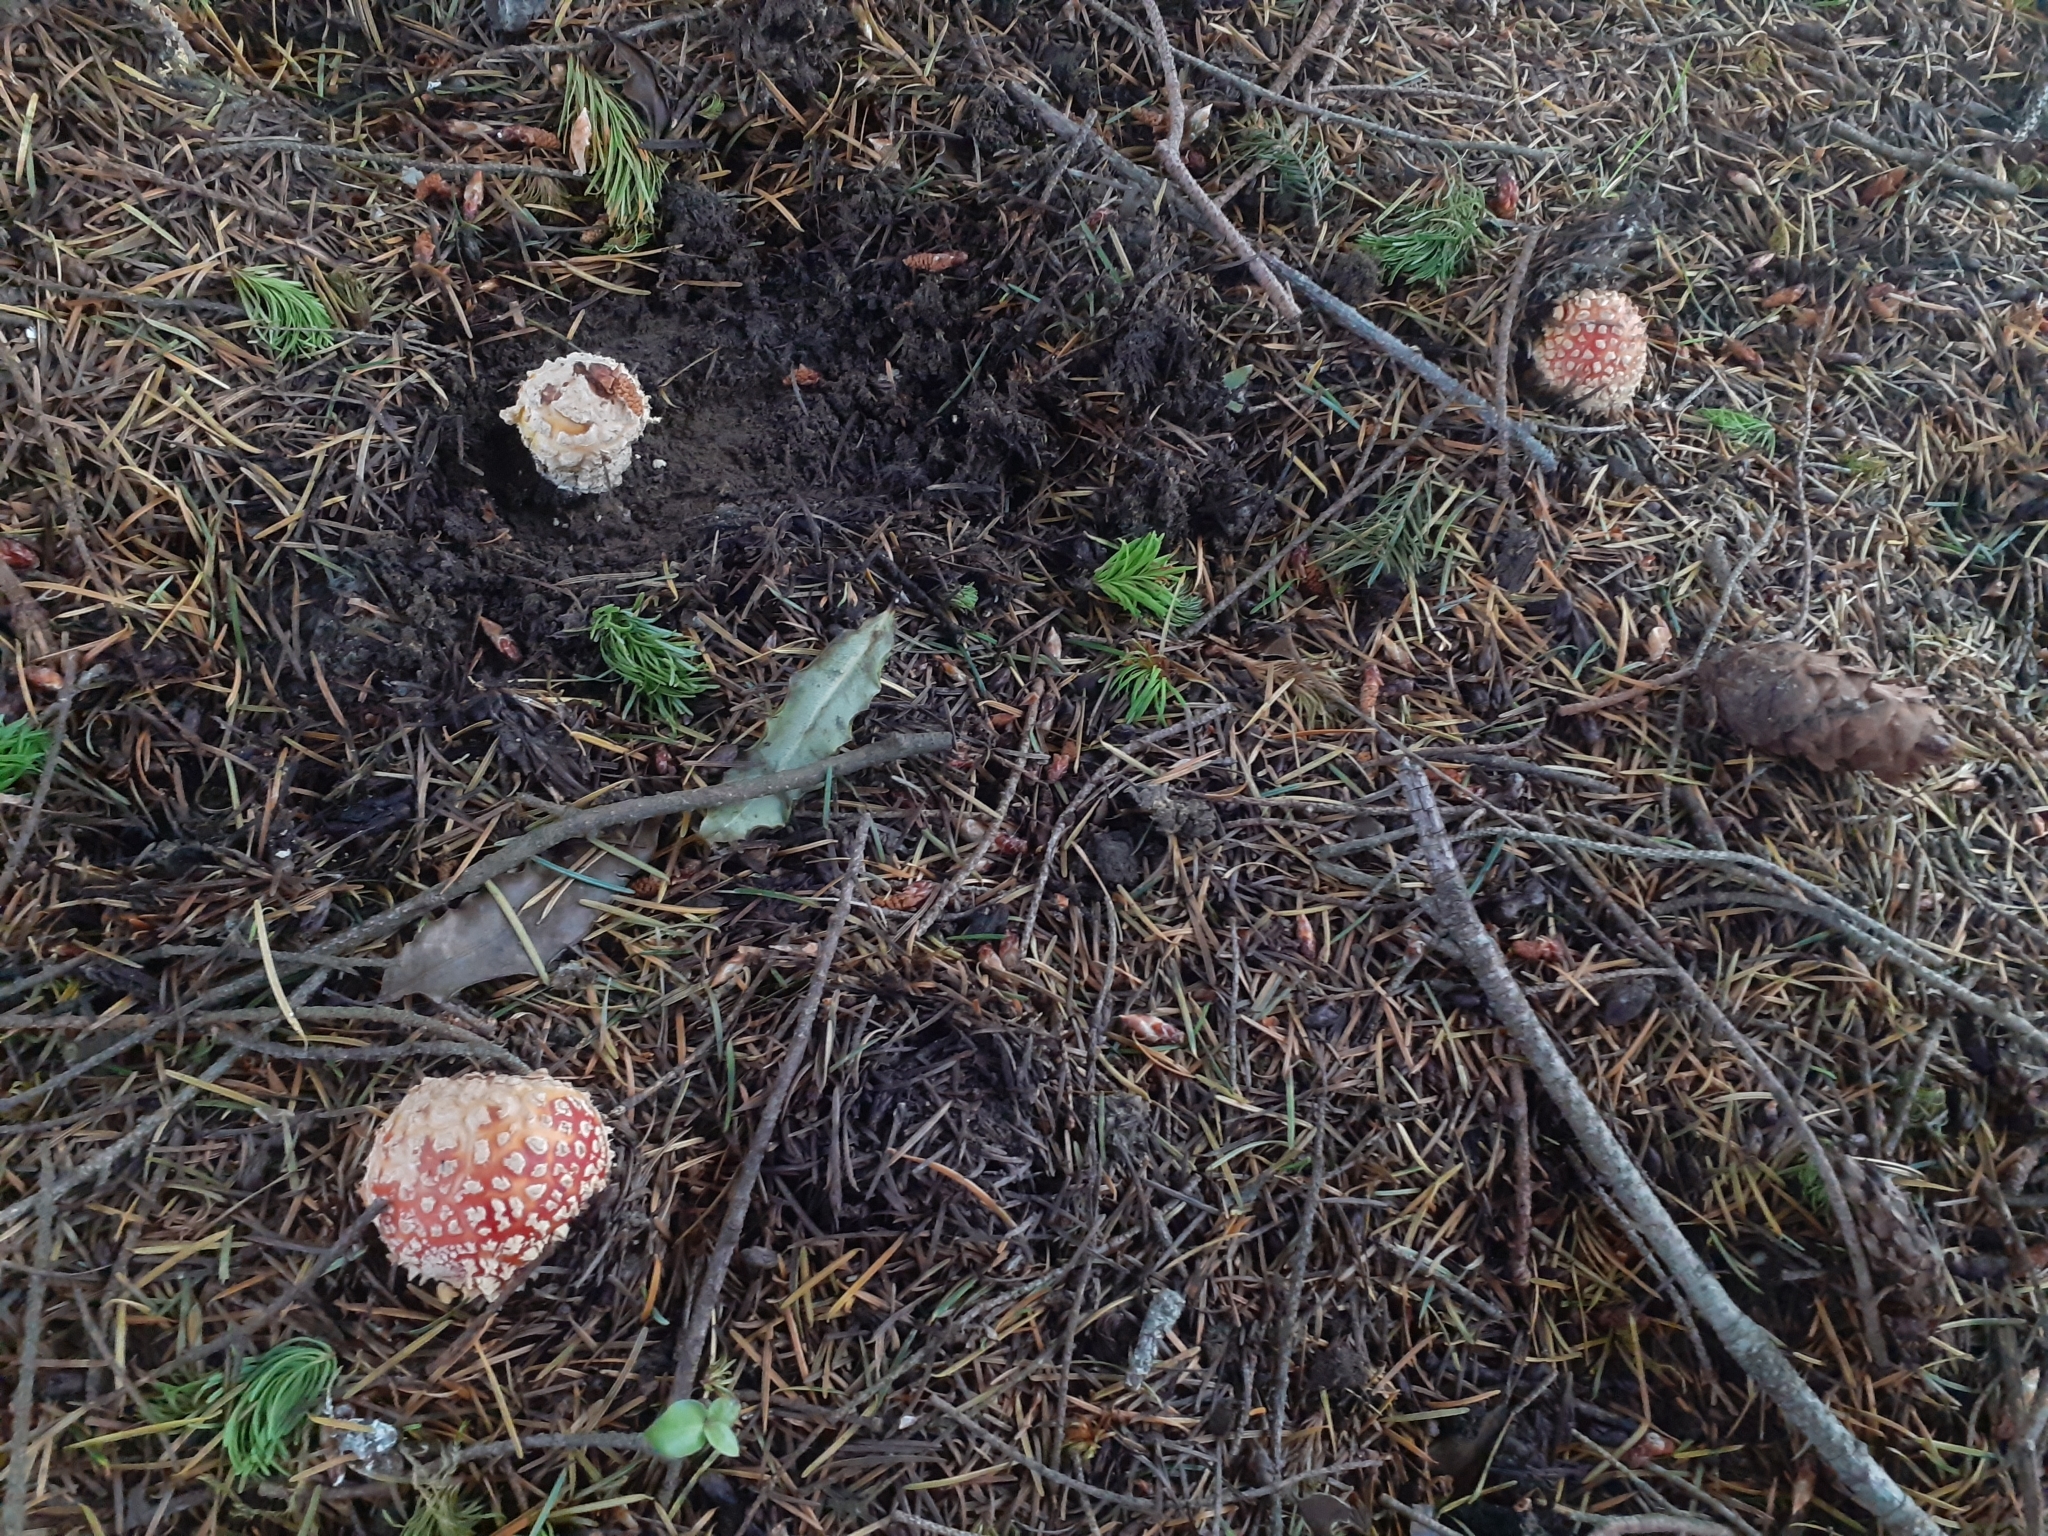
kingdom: Fungi
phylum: Basidiomycota
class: Agaricomycetes
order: Agaricales
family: Amanitaceae
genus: Amanita
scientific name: Amanita muscaria
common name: Fly agaric
